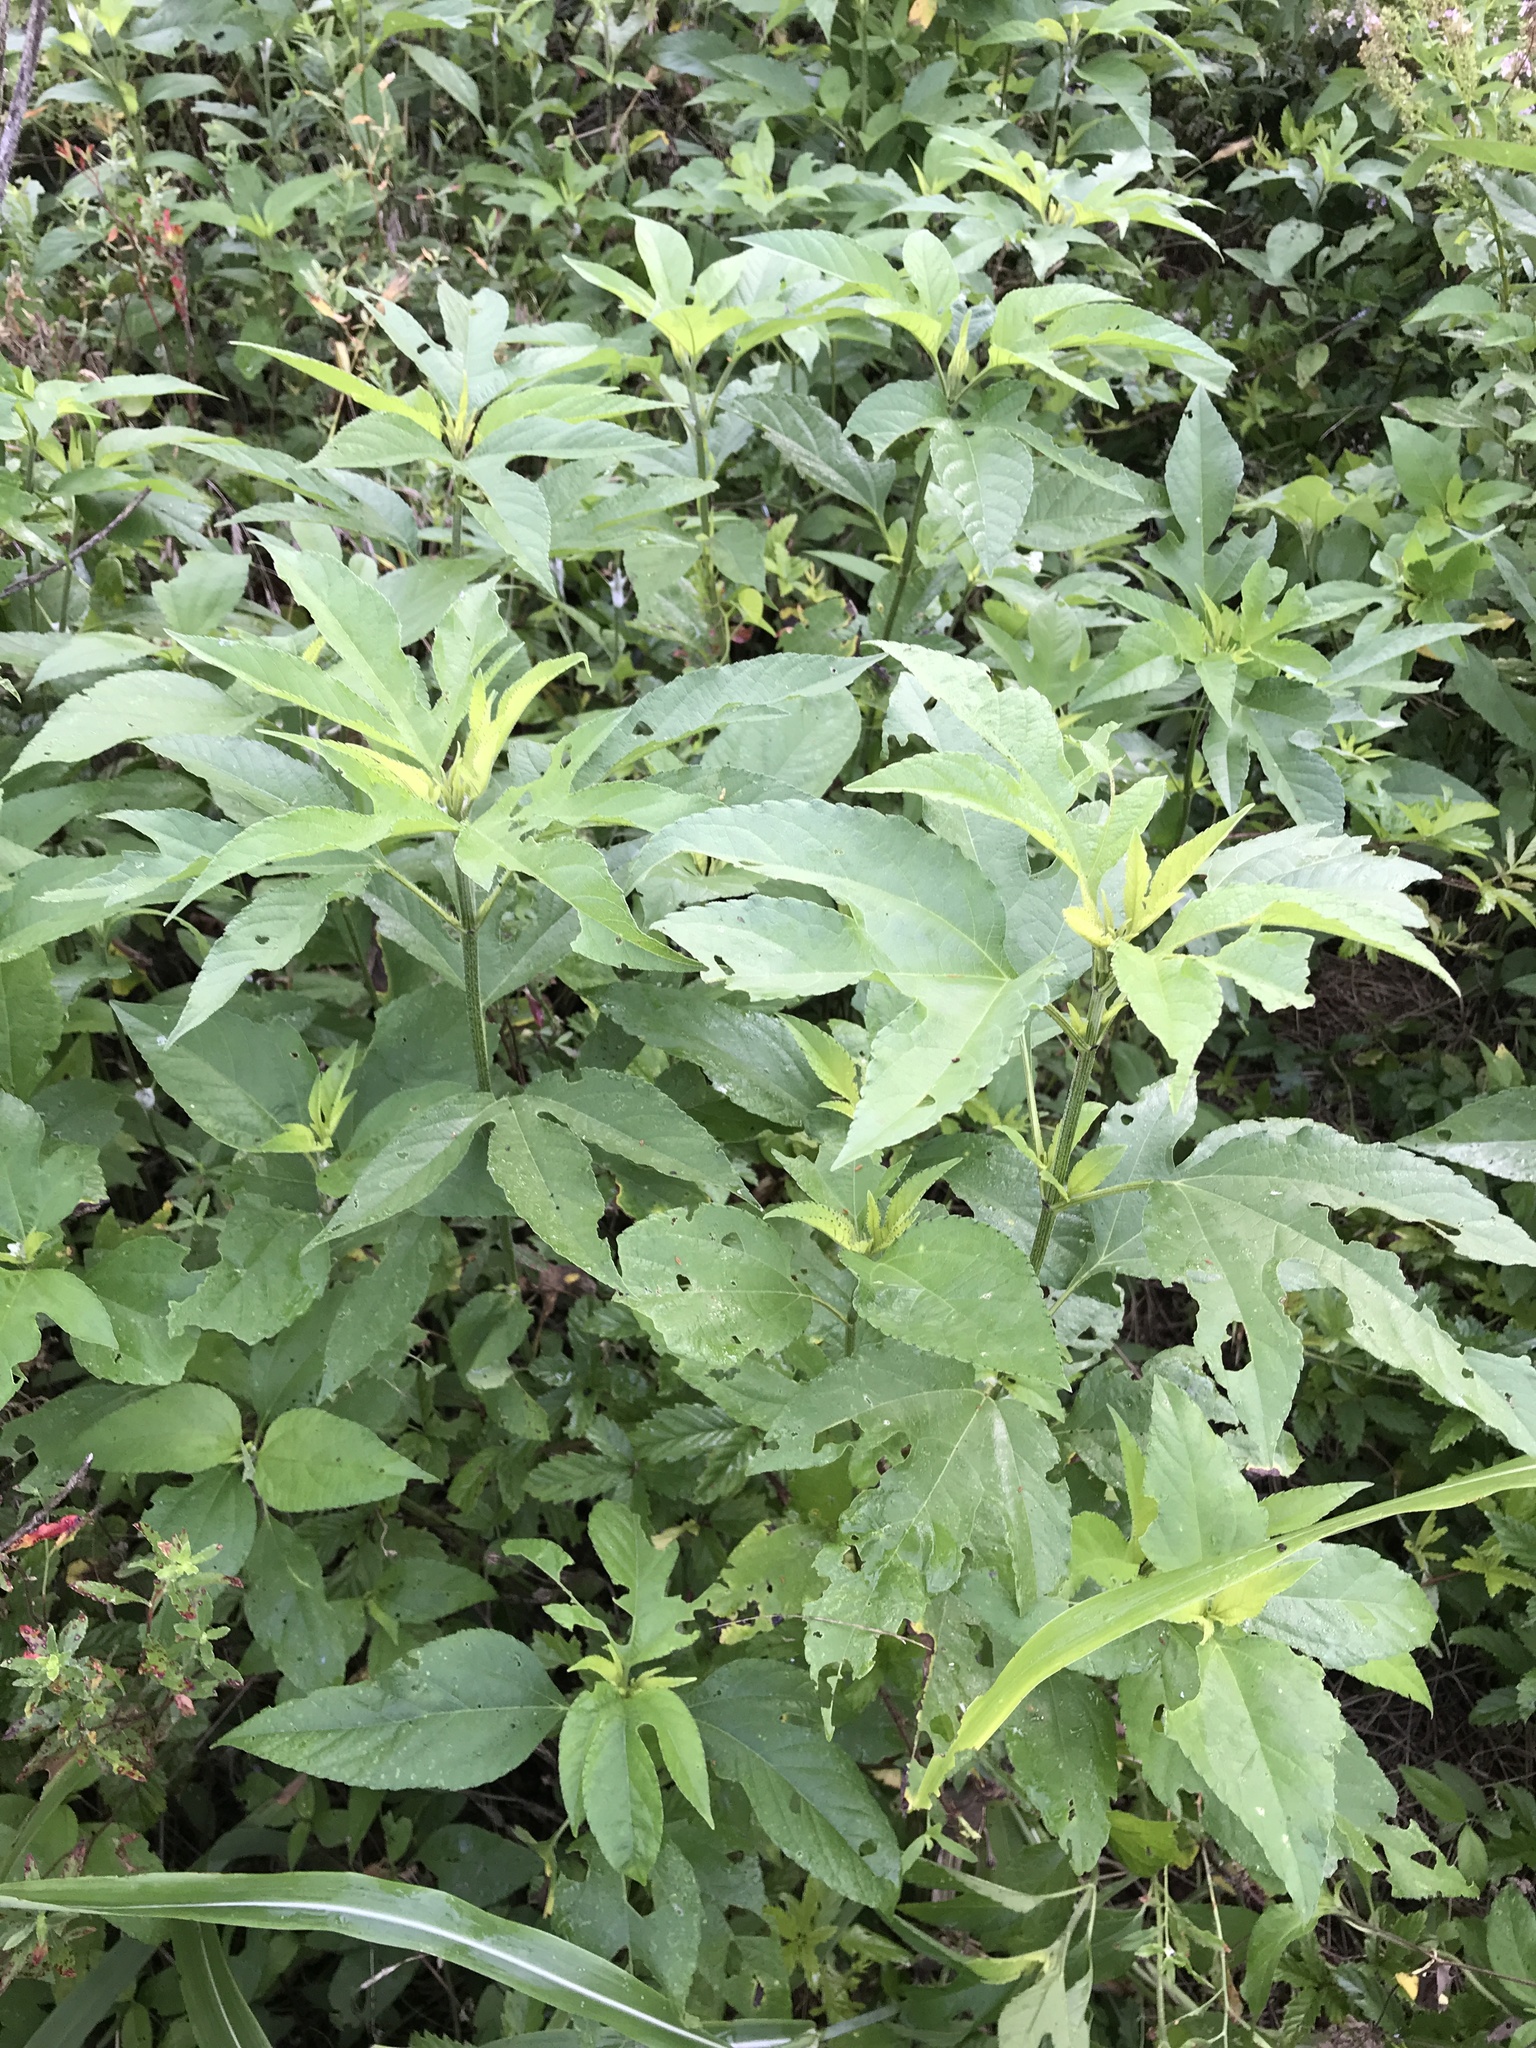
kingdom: Plantae
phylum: Tracheophyta
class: Magnoliopsida
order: Asterales
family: Asteraceae
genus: Ambrosia
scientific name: Ambrosia trifida
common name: Giant ragweed
